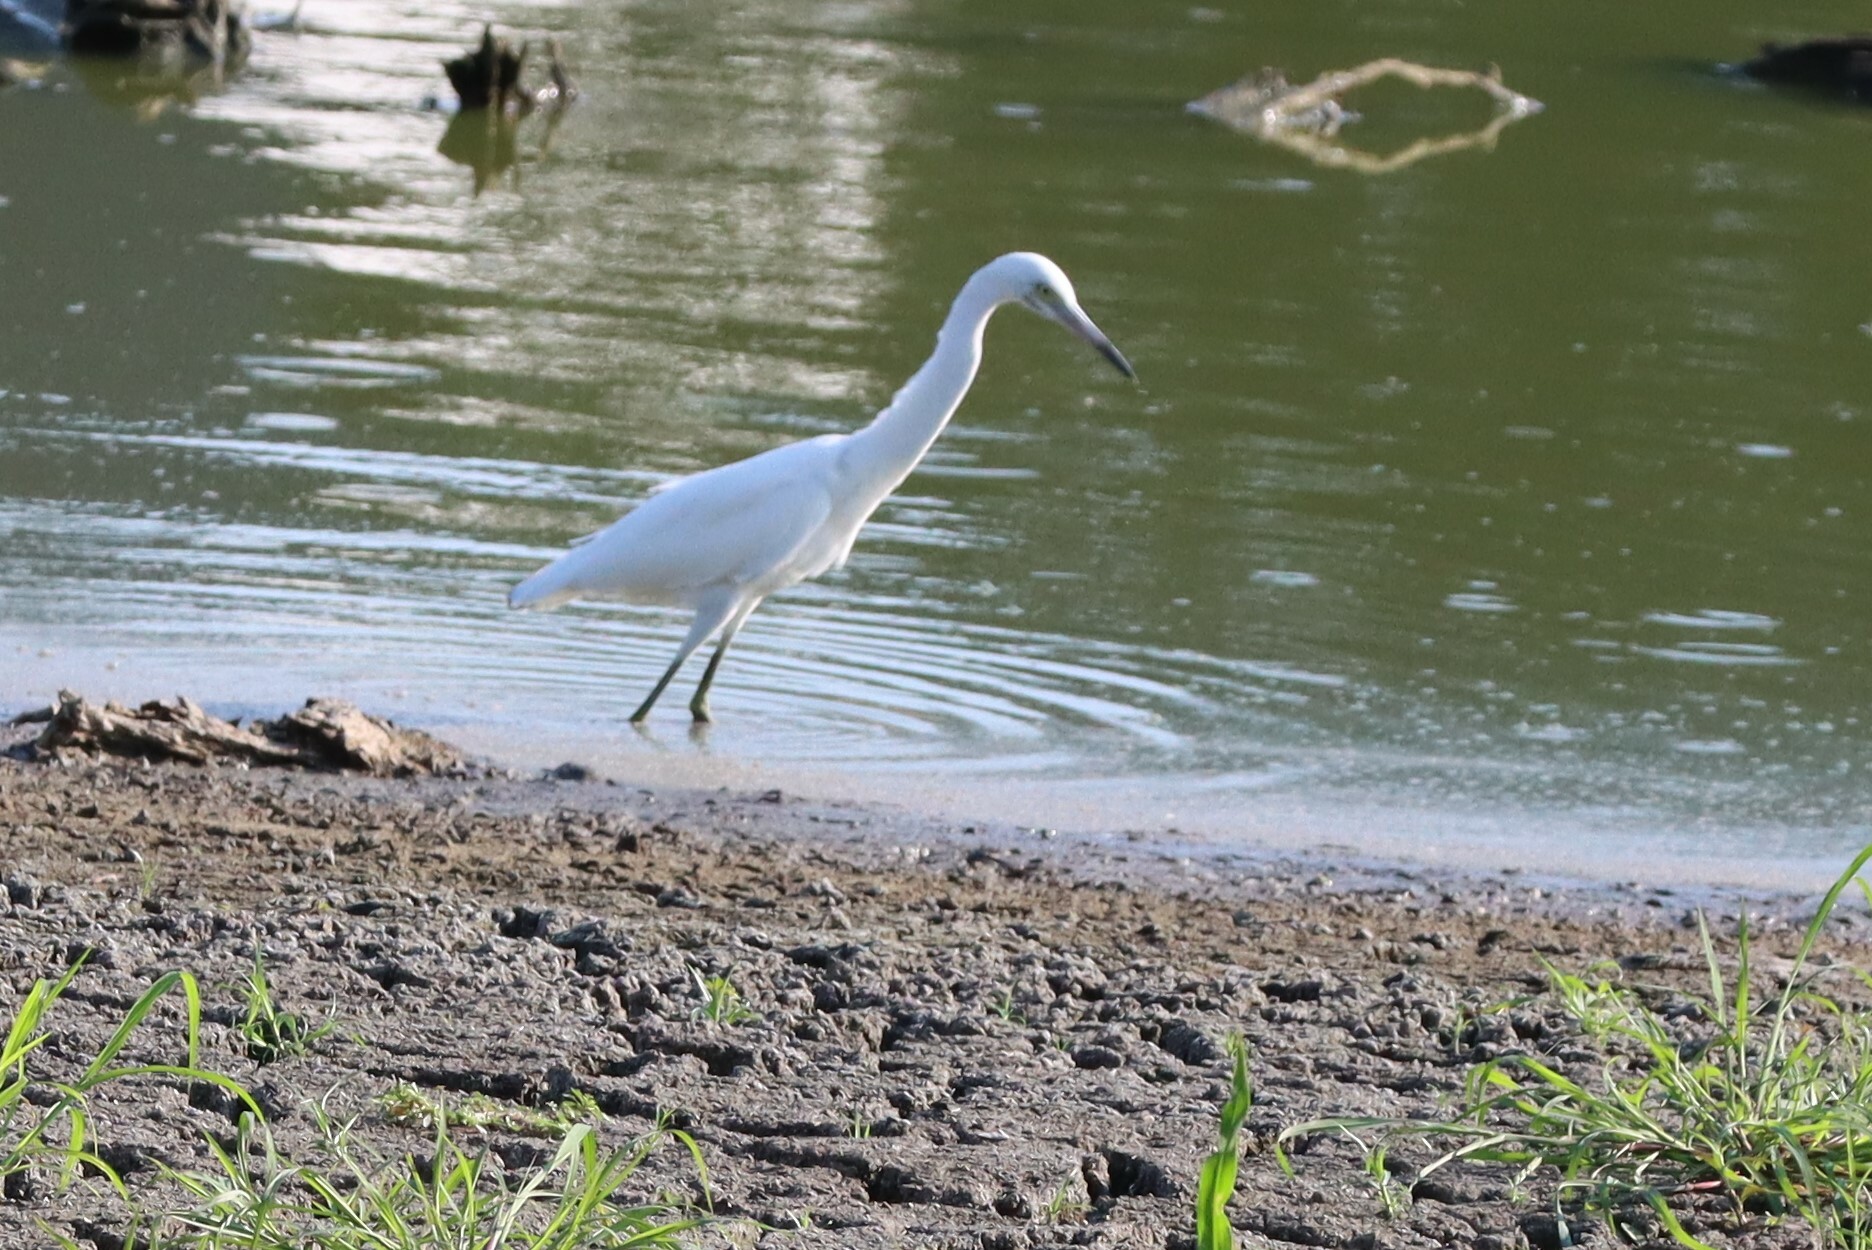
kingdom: Animalia
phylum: Chordata
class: Aves
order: Pelecaniformes
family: Ardeidae
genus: Egretta
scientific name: Egretta caerulea
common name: Little blue heron
